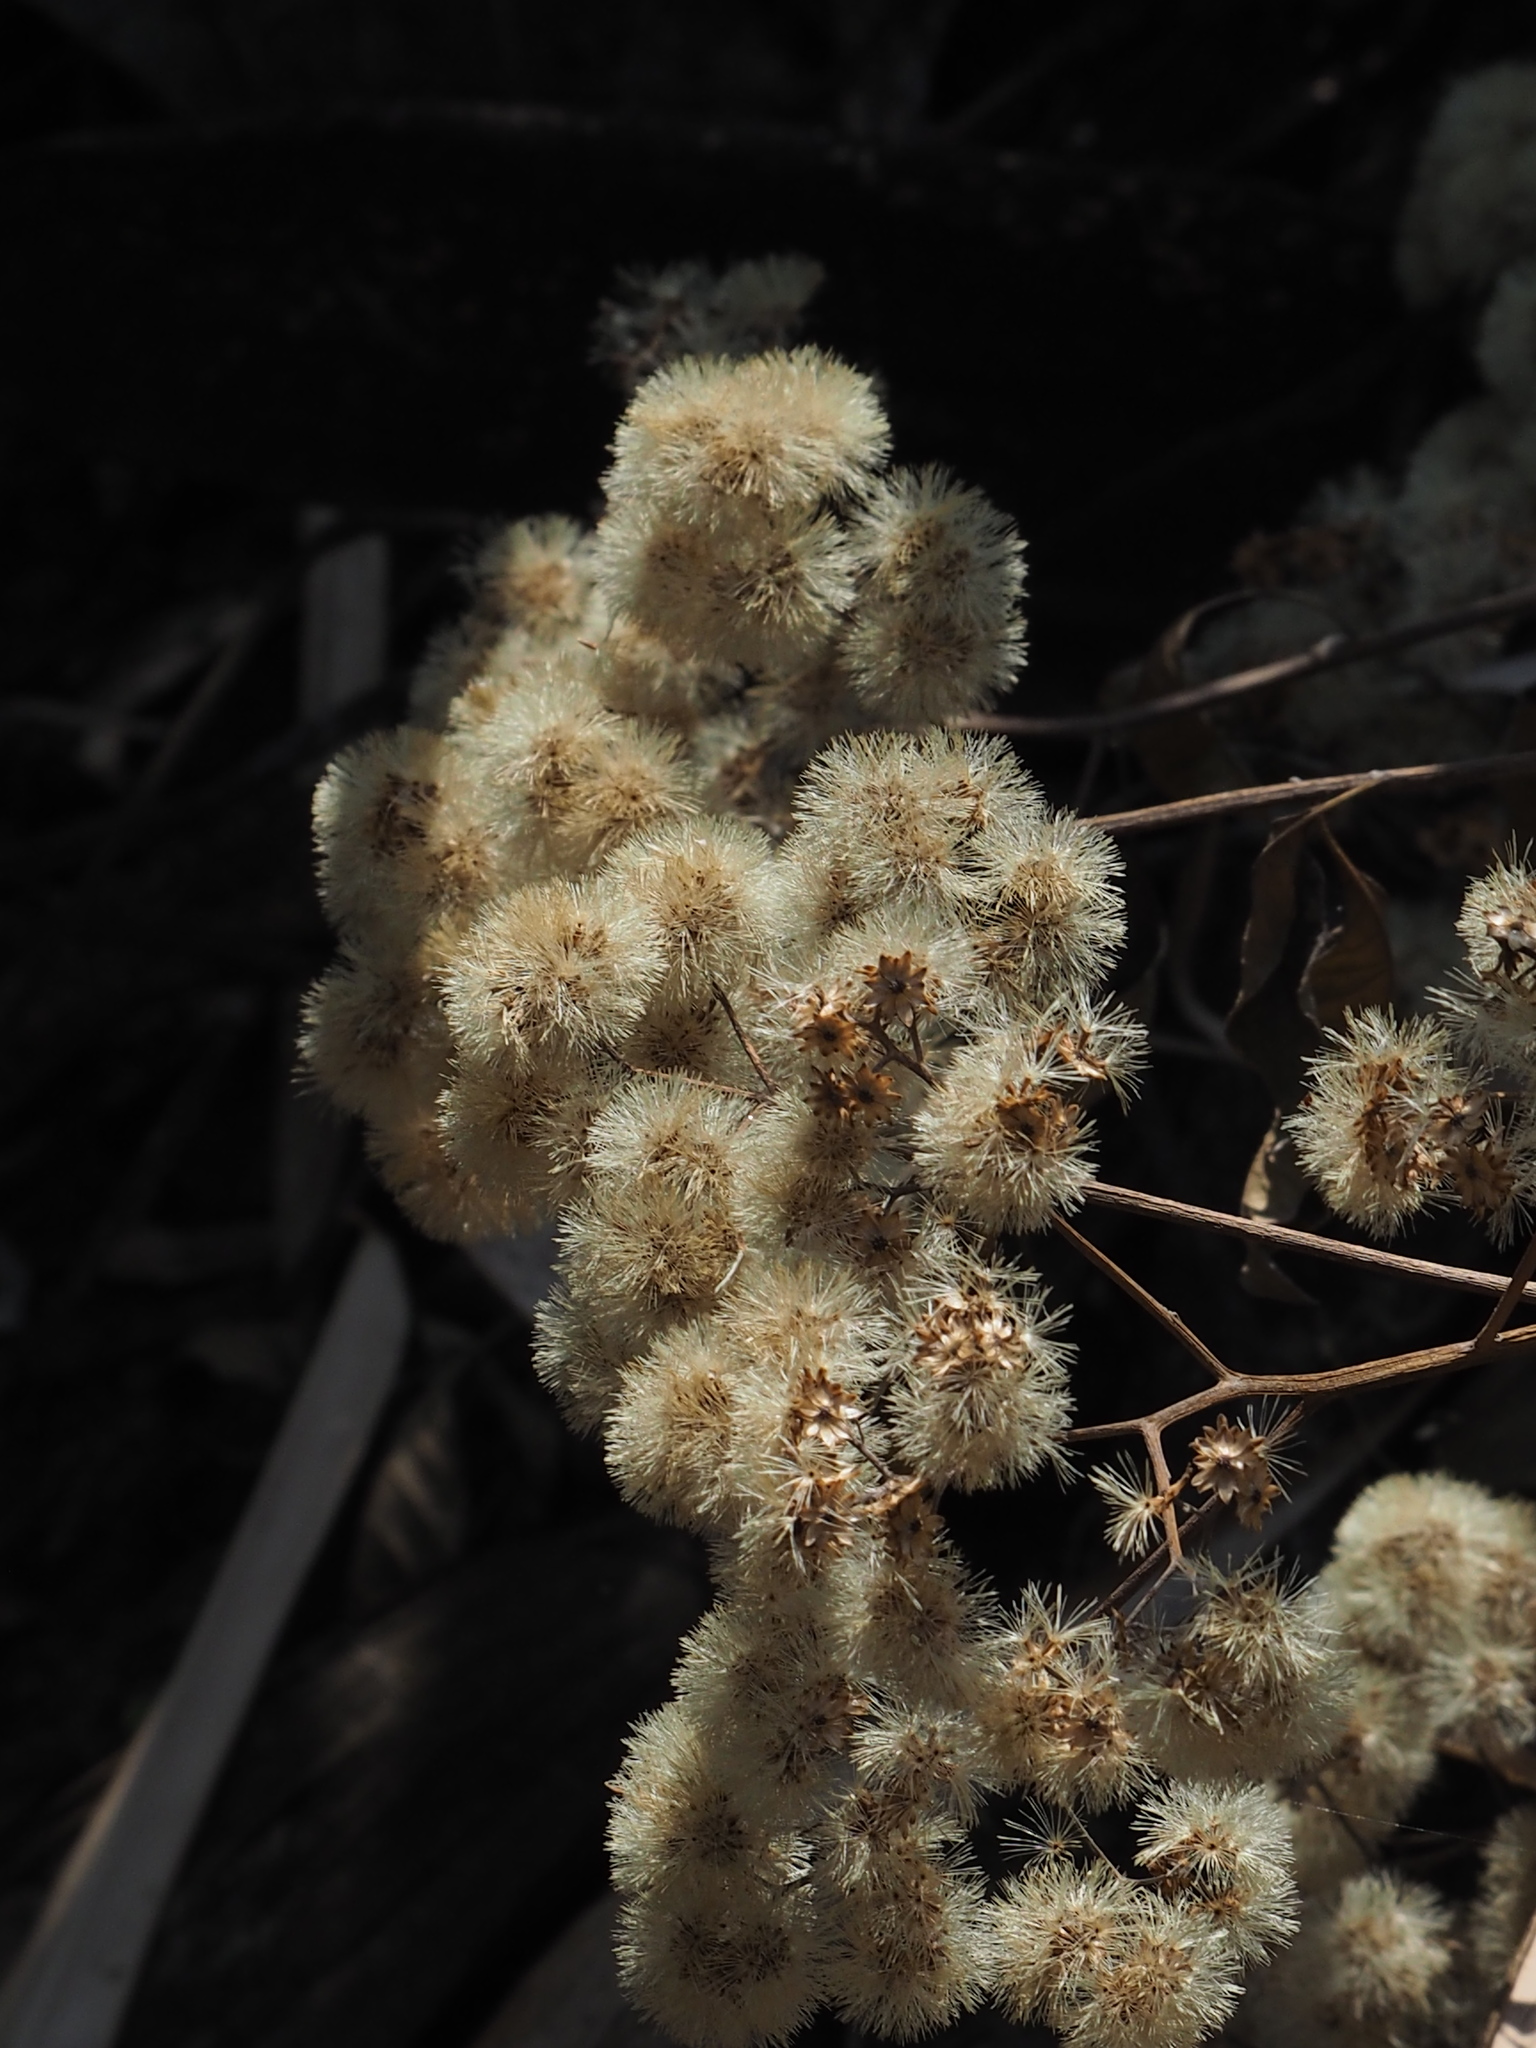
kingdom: Plantae
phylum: Tracheophyta
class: Magnoliopsida
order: Asterales
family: Asteraceae
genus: Gymnanthemum
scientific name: Gymnanthemum amygdalinum
